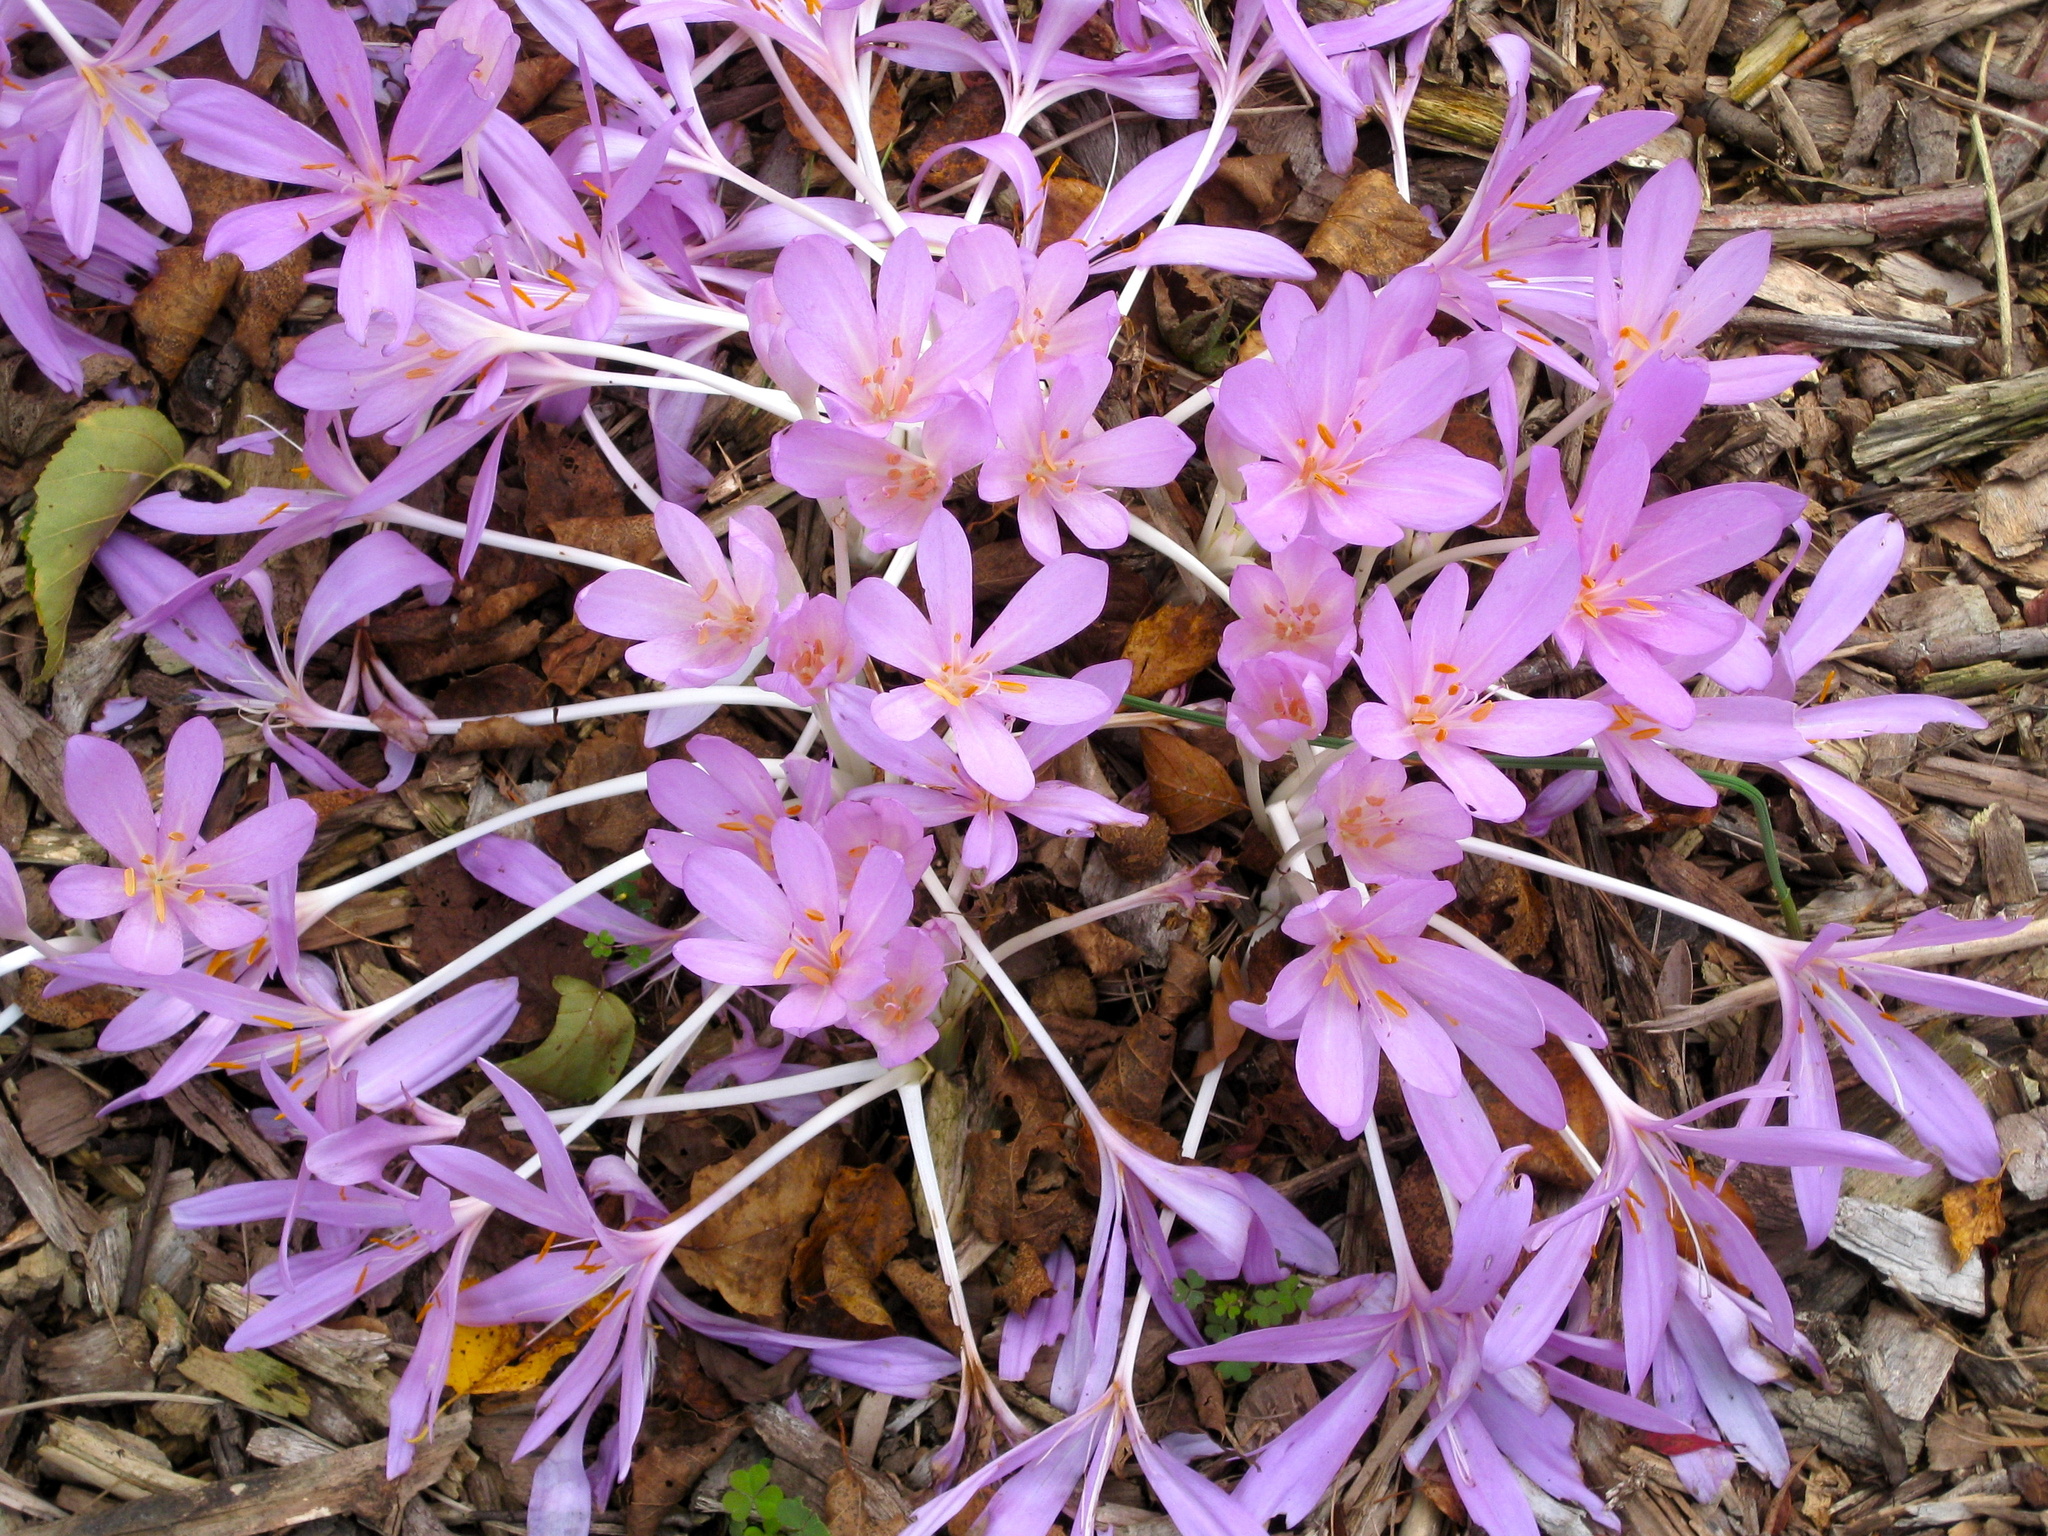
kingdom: Plantae
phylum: Tracheophyta
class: Liliopsida
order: Liliales
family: Colchicaceae
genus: Colchicum
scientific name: Colchicum autumnale
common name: Autumn crocus
